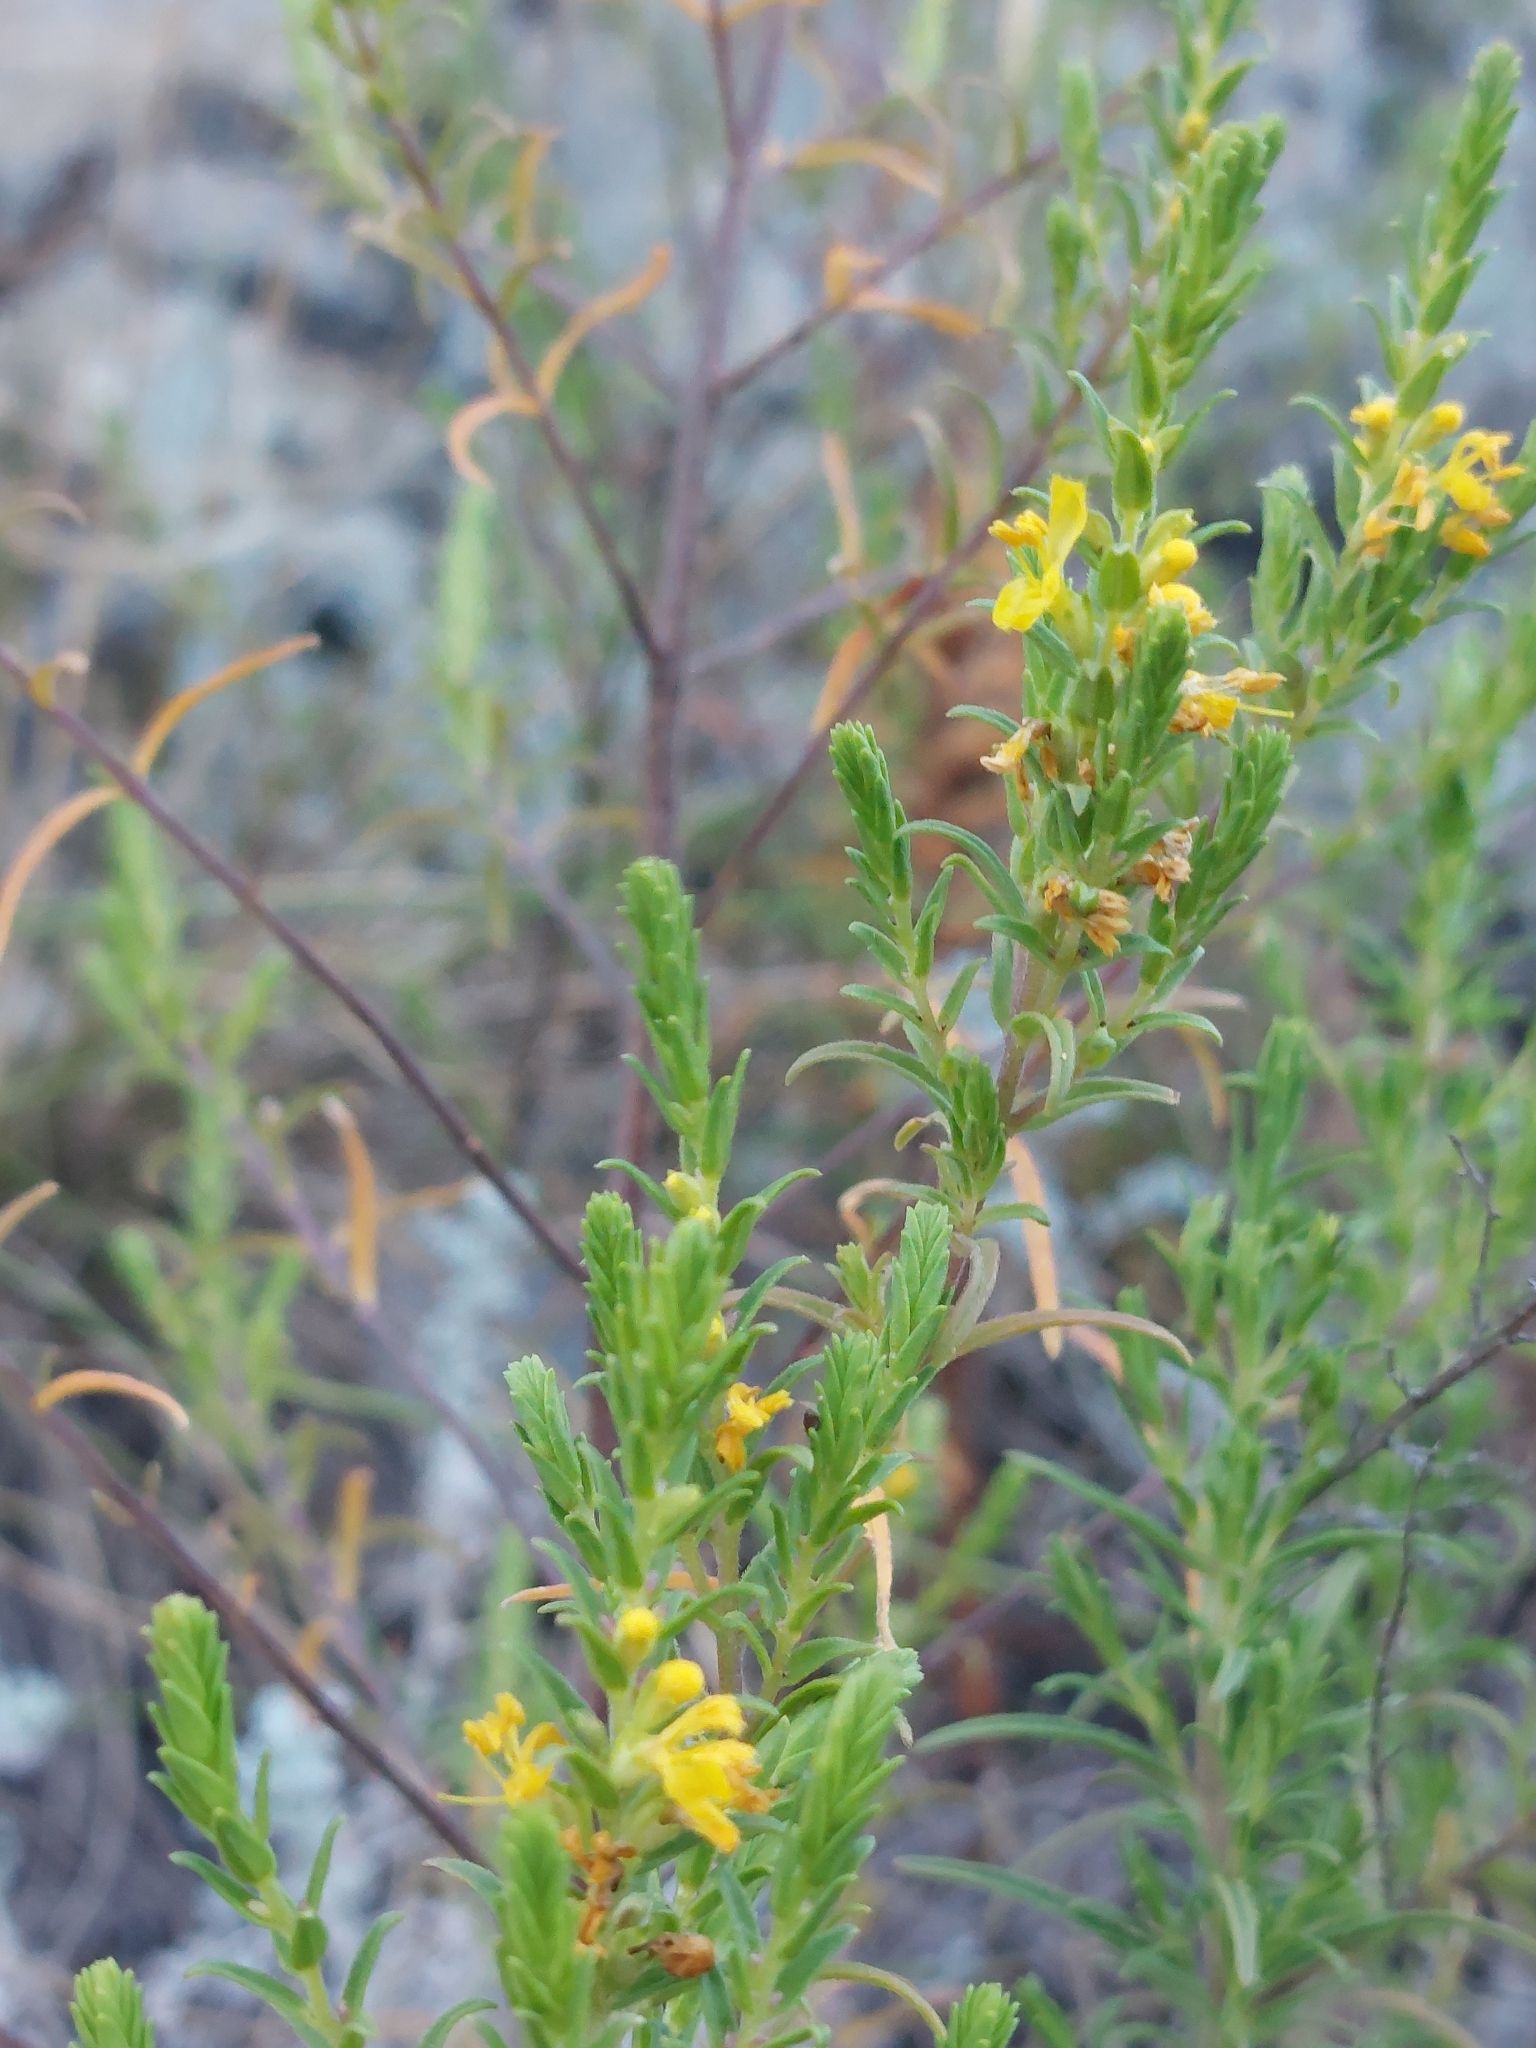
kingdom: Plantae
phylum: Tracheophyta
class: Magnoliopsida
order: Lamiales
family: Orobanchaceae
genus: Odontites
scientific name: Odontites luteus
